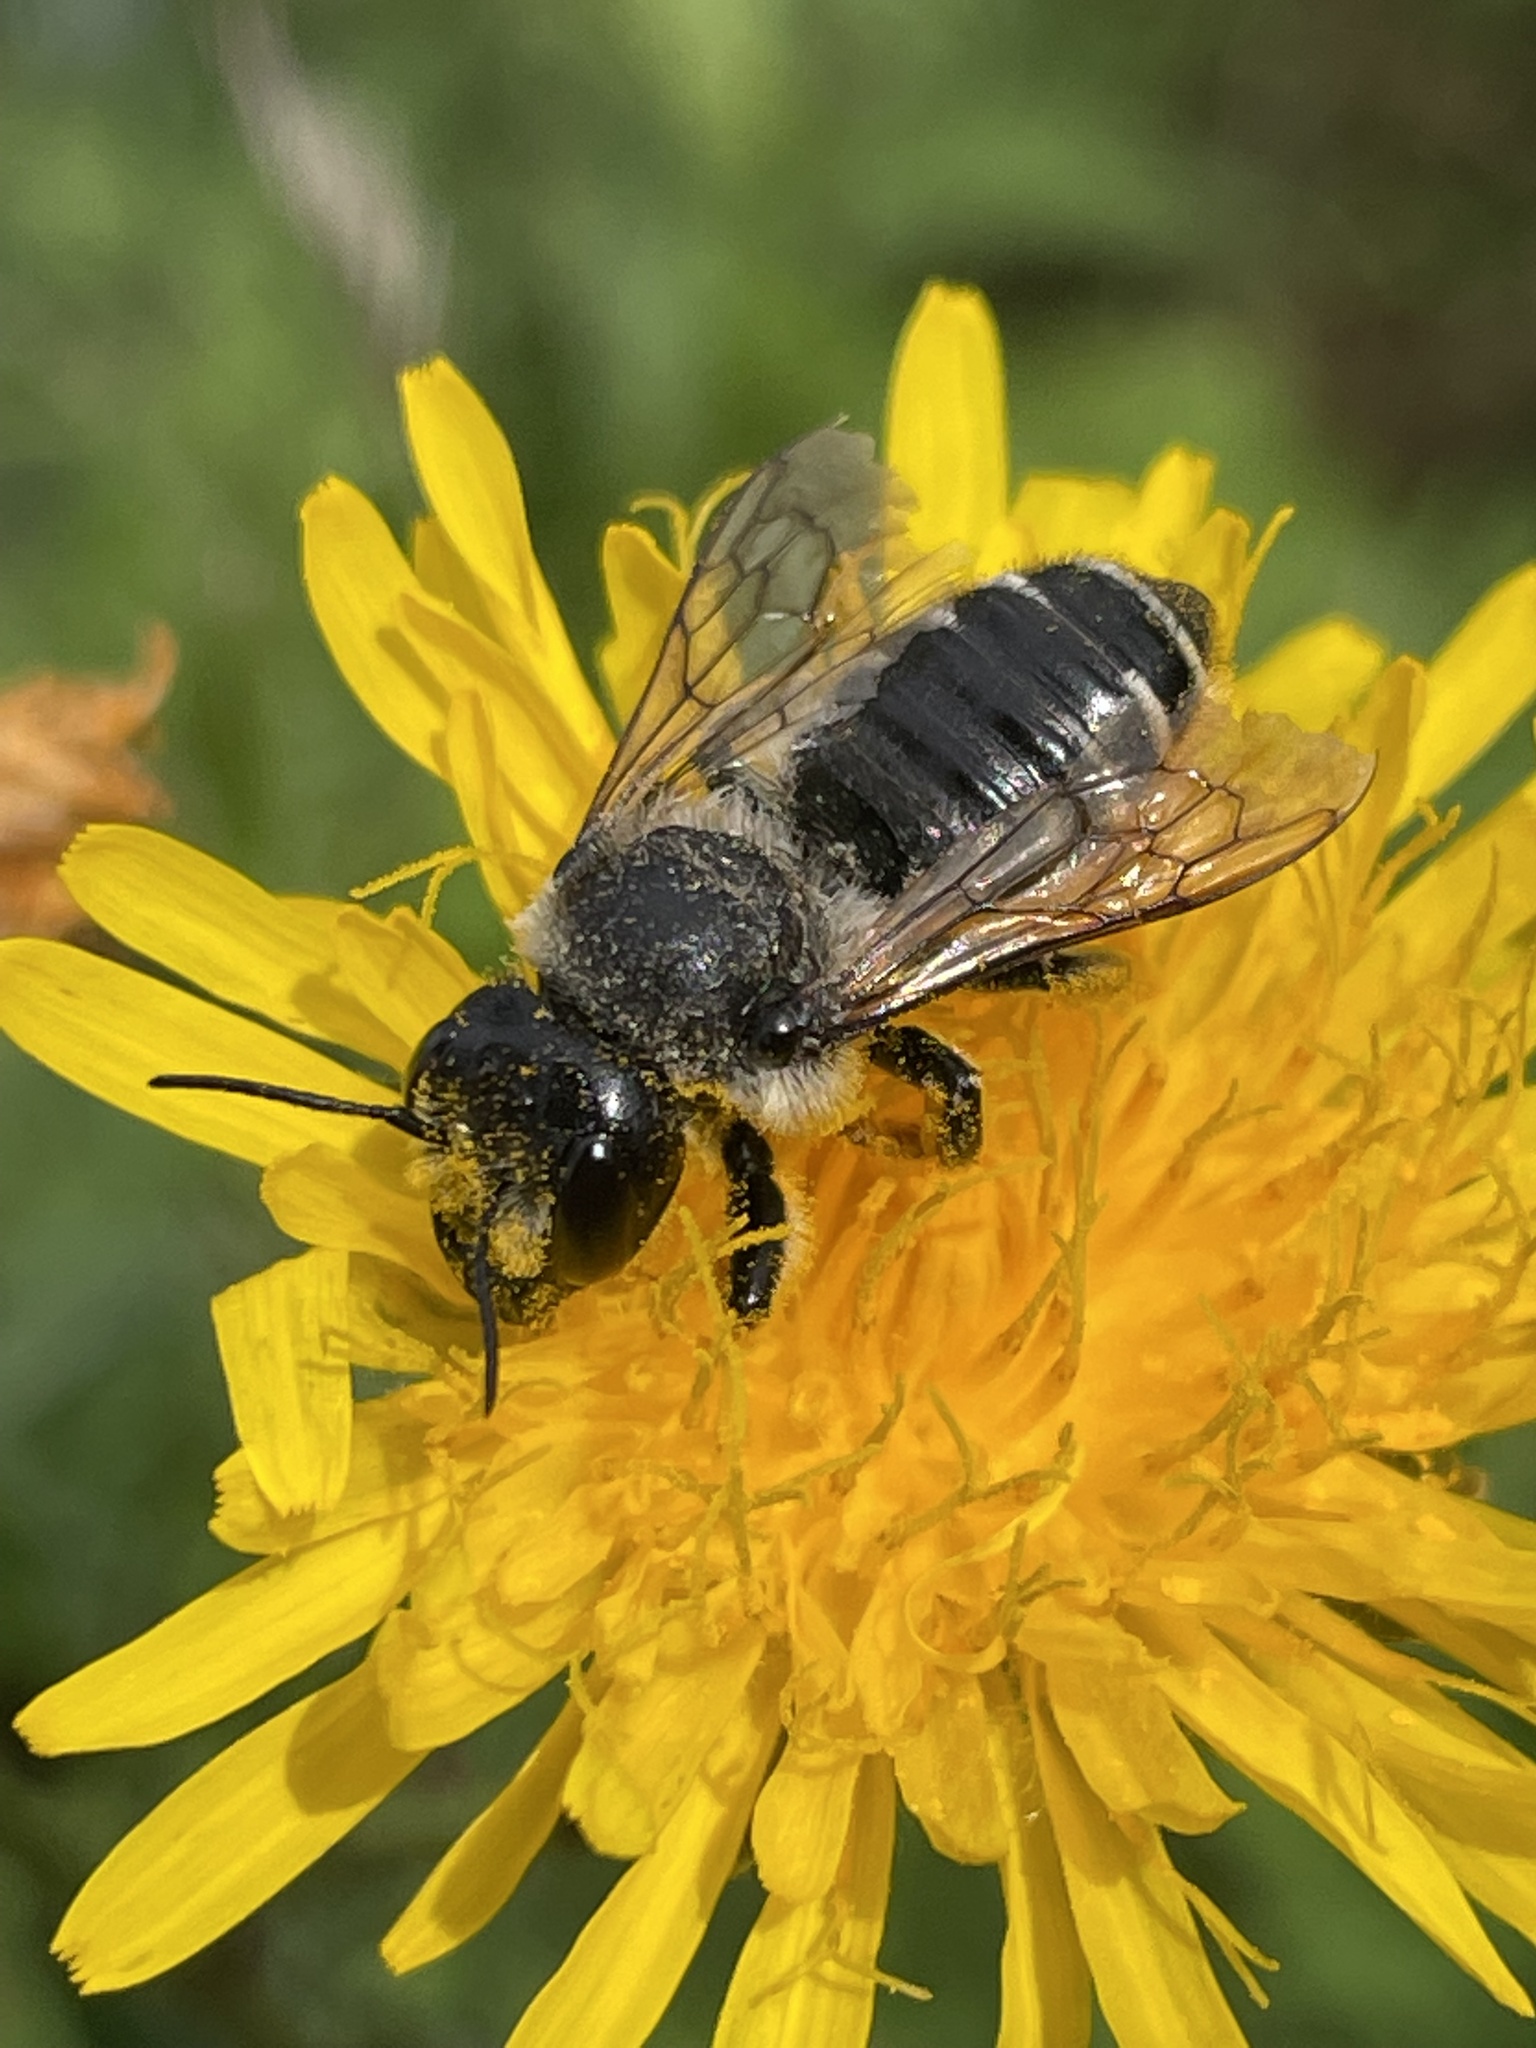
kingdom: Animalia
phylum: Arthropoda
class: Insecta
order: Hymenoptera
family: Megachilidae
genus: Megachile
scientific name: Megachile inermis
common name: Unarmed leafcutter bee
